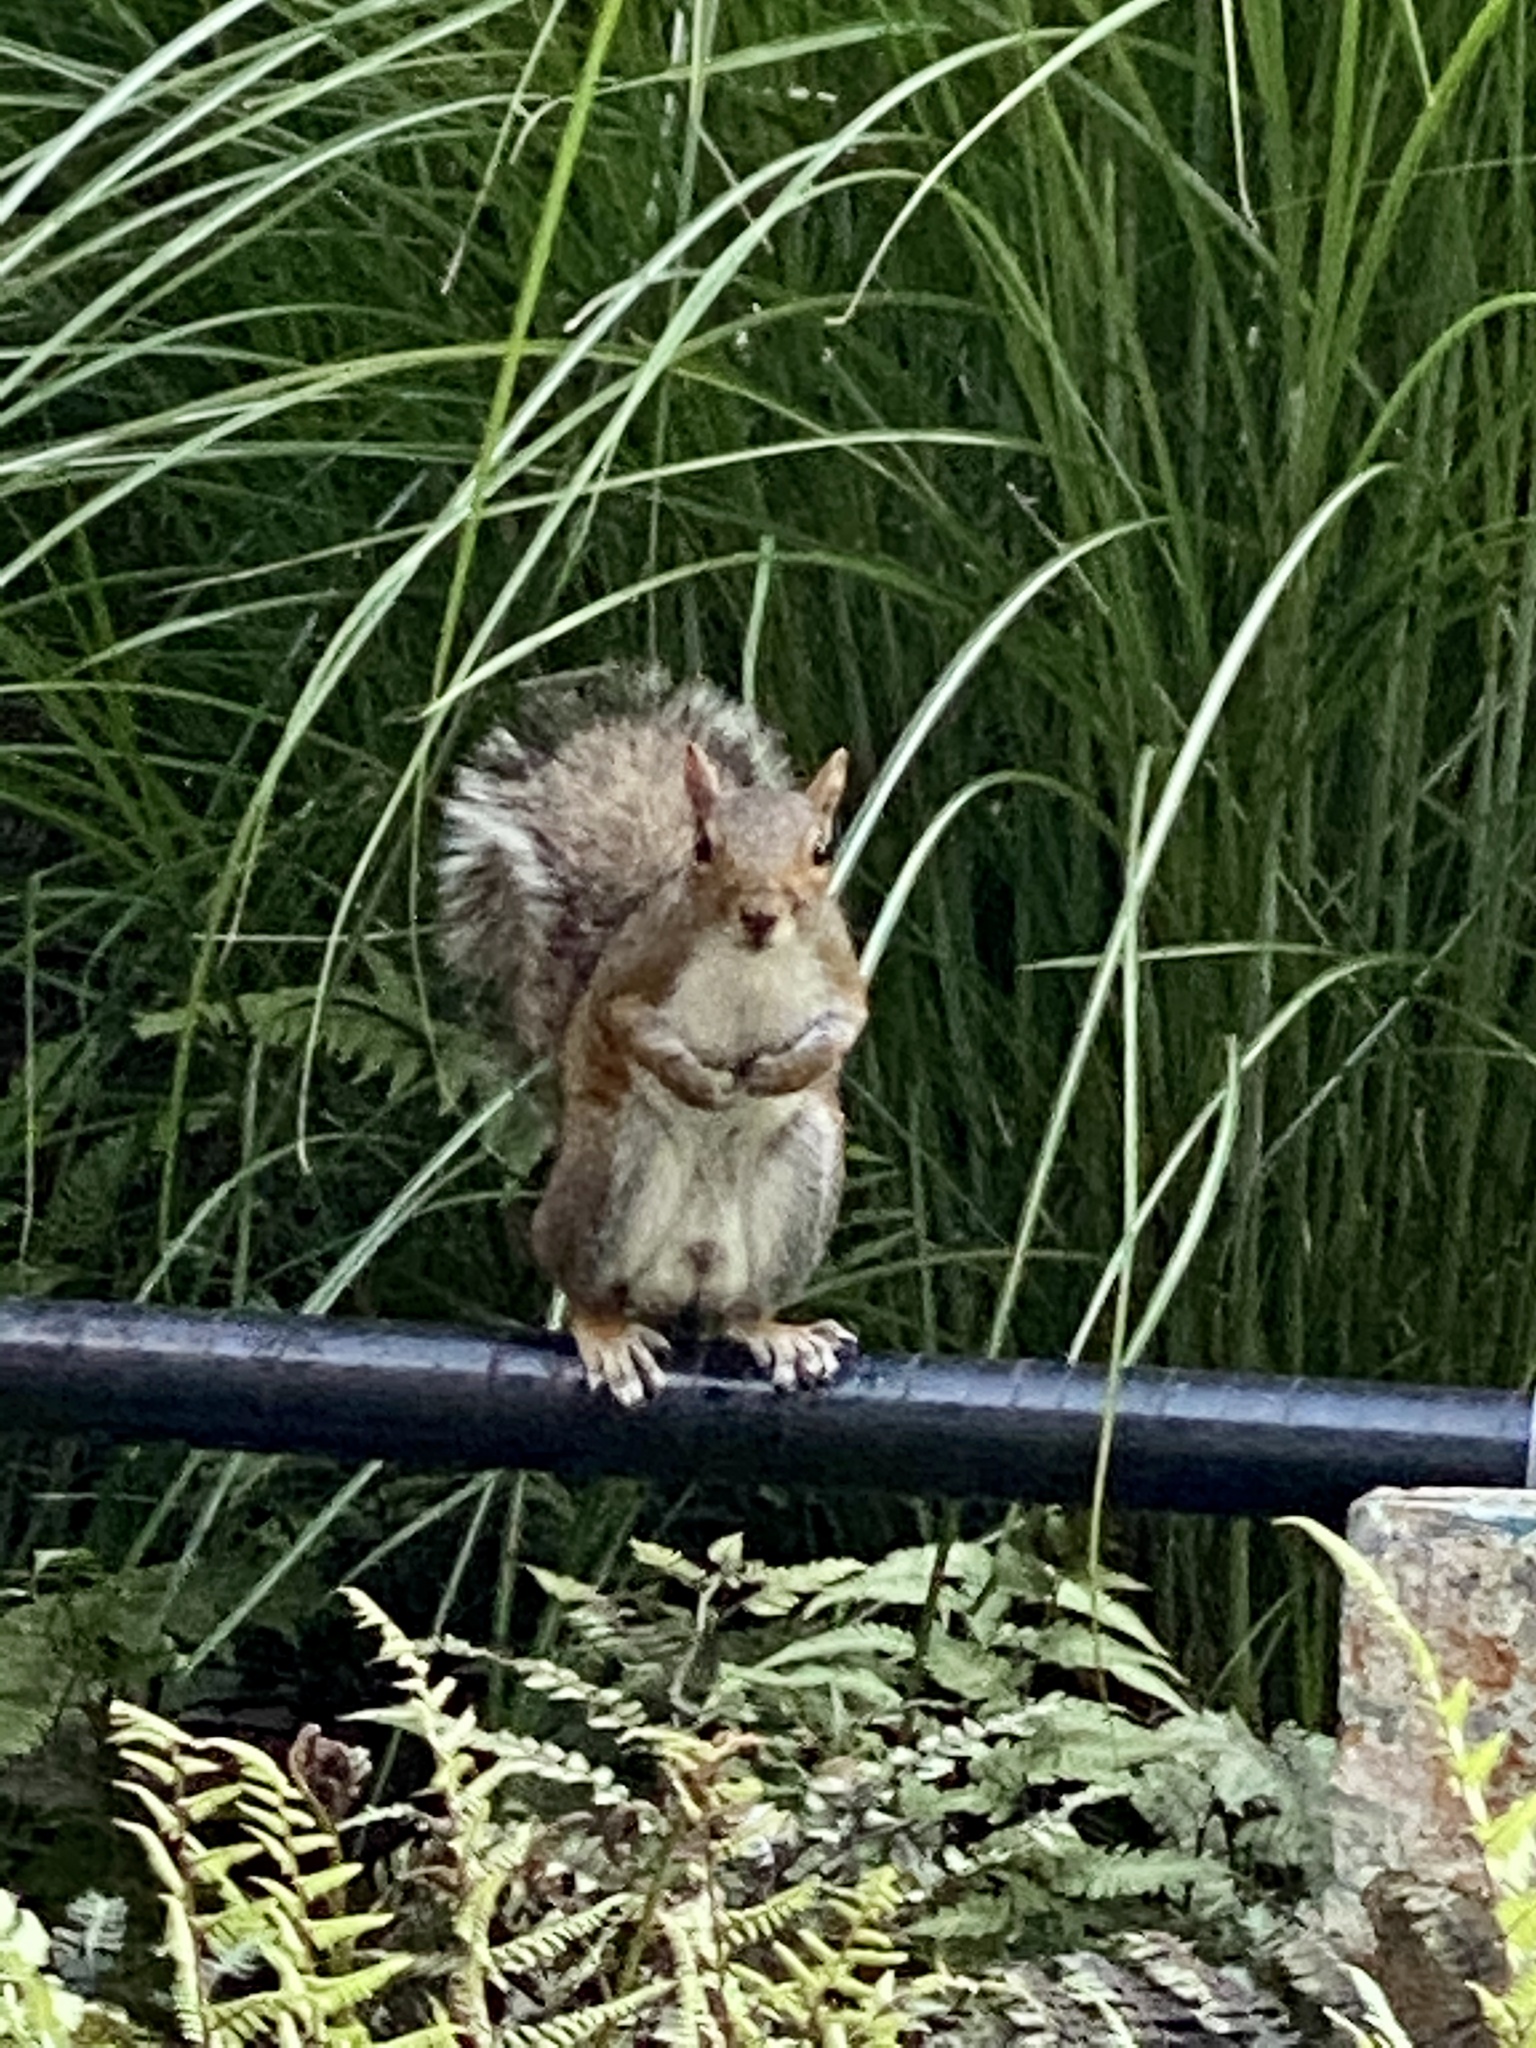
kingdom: Animalia
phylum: Chordata
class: Mammalia
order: Rodentia
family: Sciuridae
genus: Sciurus
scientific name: Sciurus carolinensis
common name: Eastern gray squirrel
